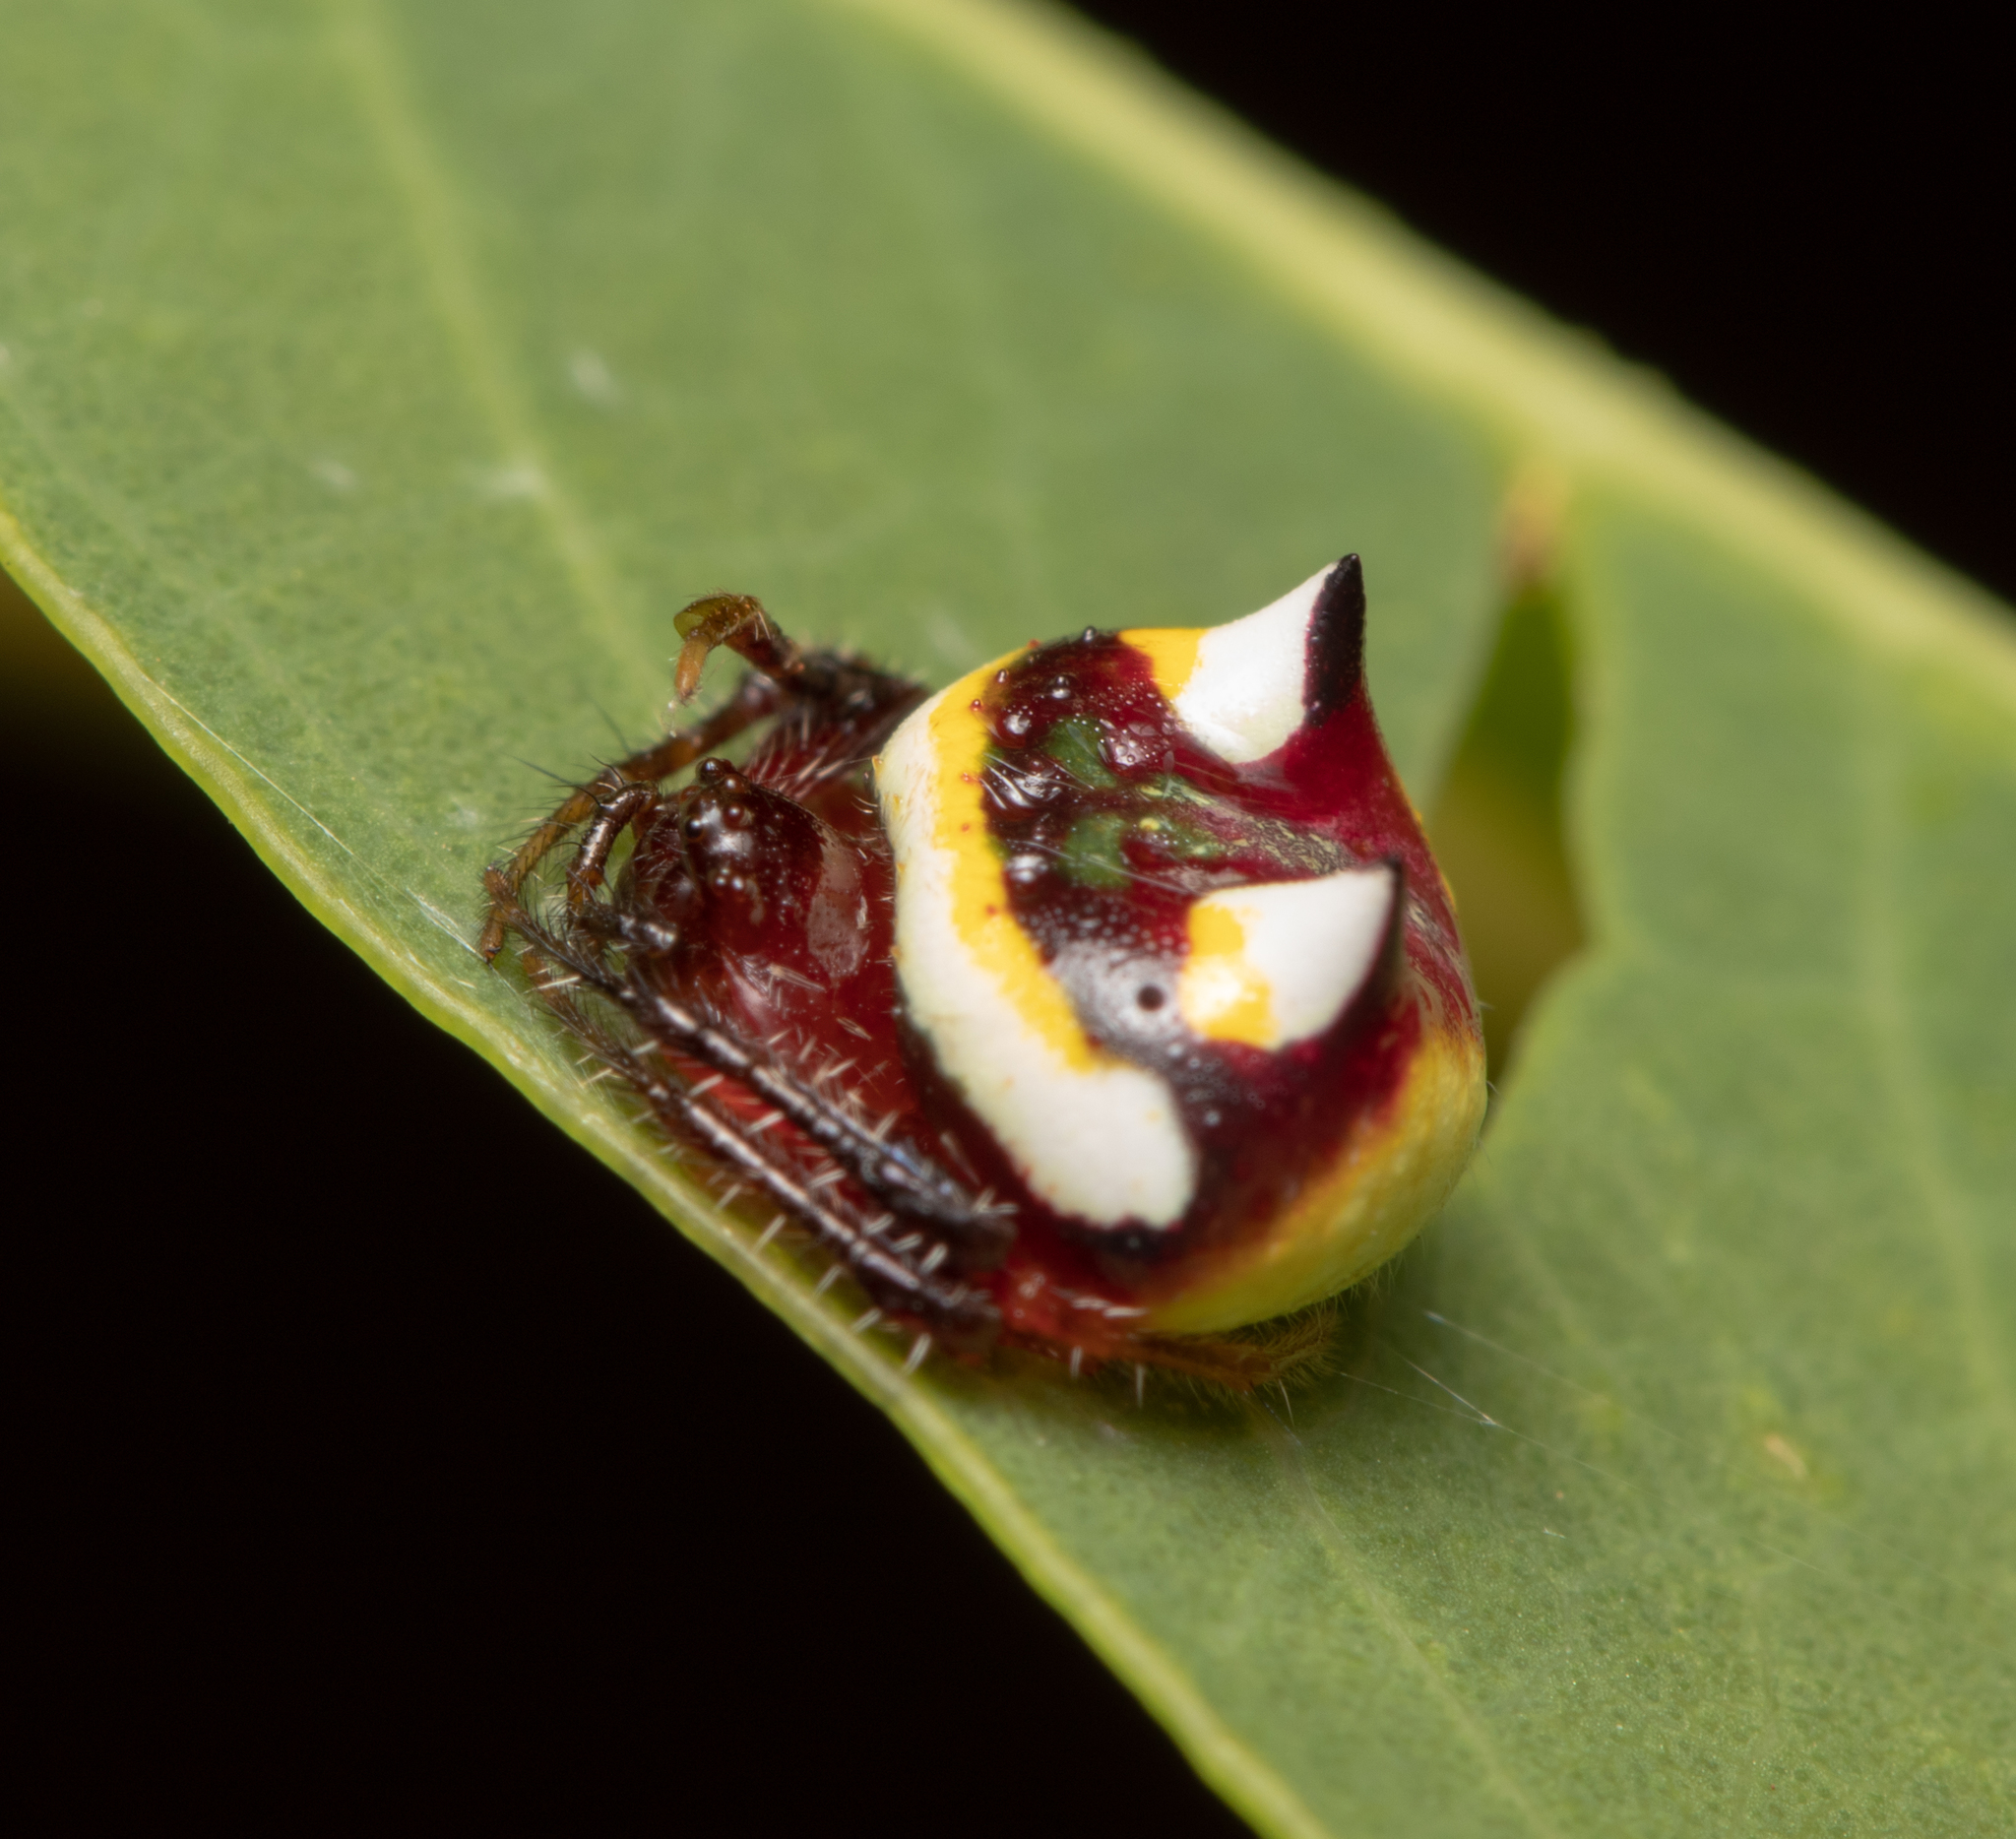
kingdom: Animalia
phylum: Arthropoda
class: Arachnida
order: Araneae
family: Araneidae
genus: Poecilopachys
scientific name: Poecilopachys australasia
